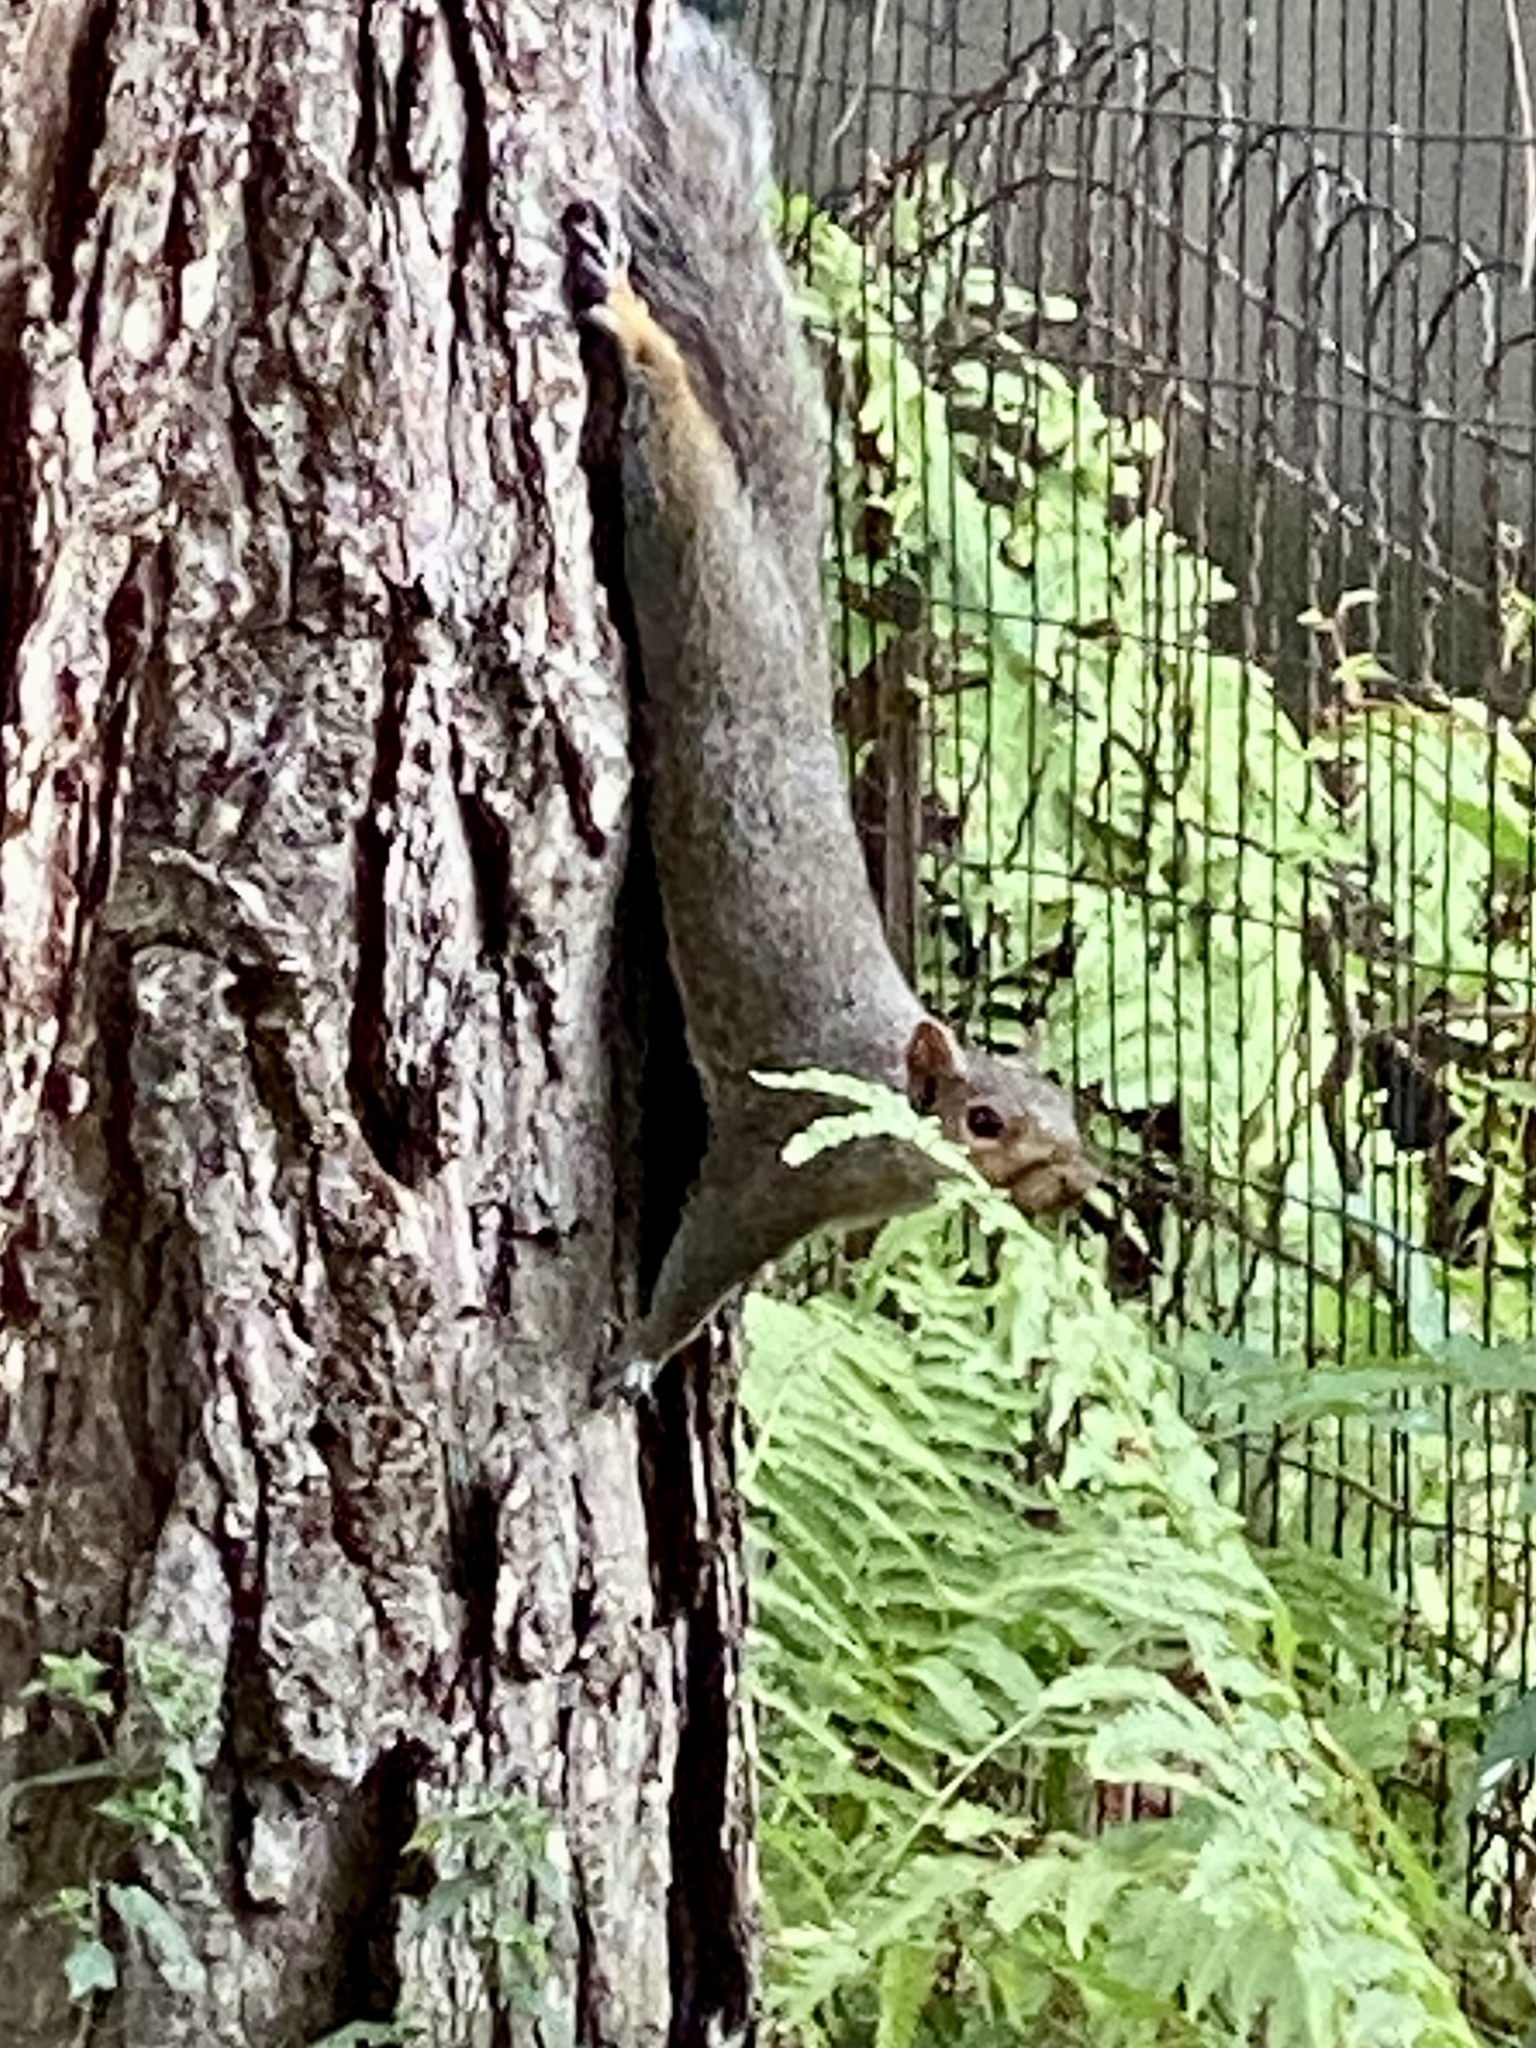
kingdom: Animalia
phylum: Chordata
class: Mammalia
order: Rodentia
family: Sciuridae
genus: Sciurus
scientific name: Sciurus carolinensis
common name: Eastern gray squirrel
